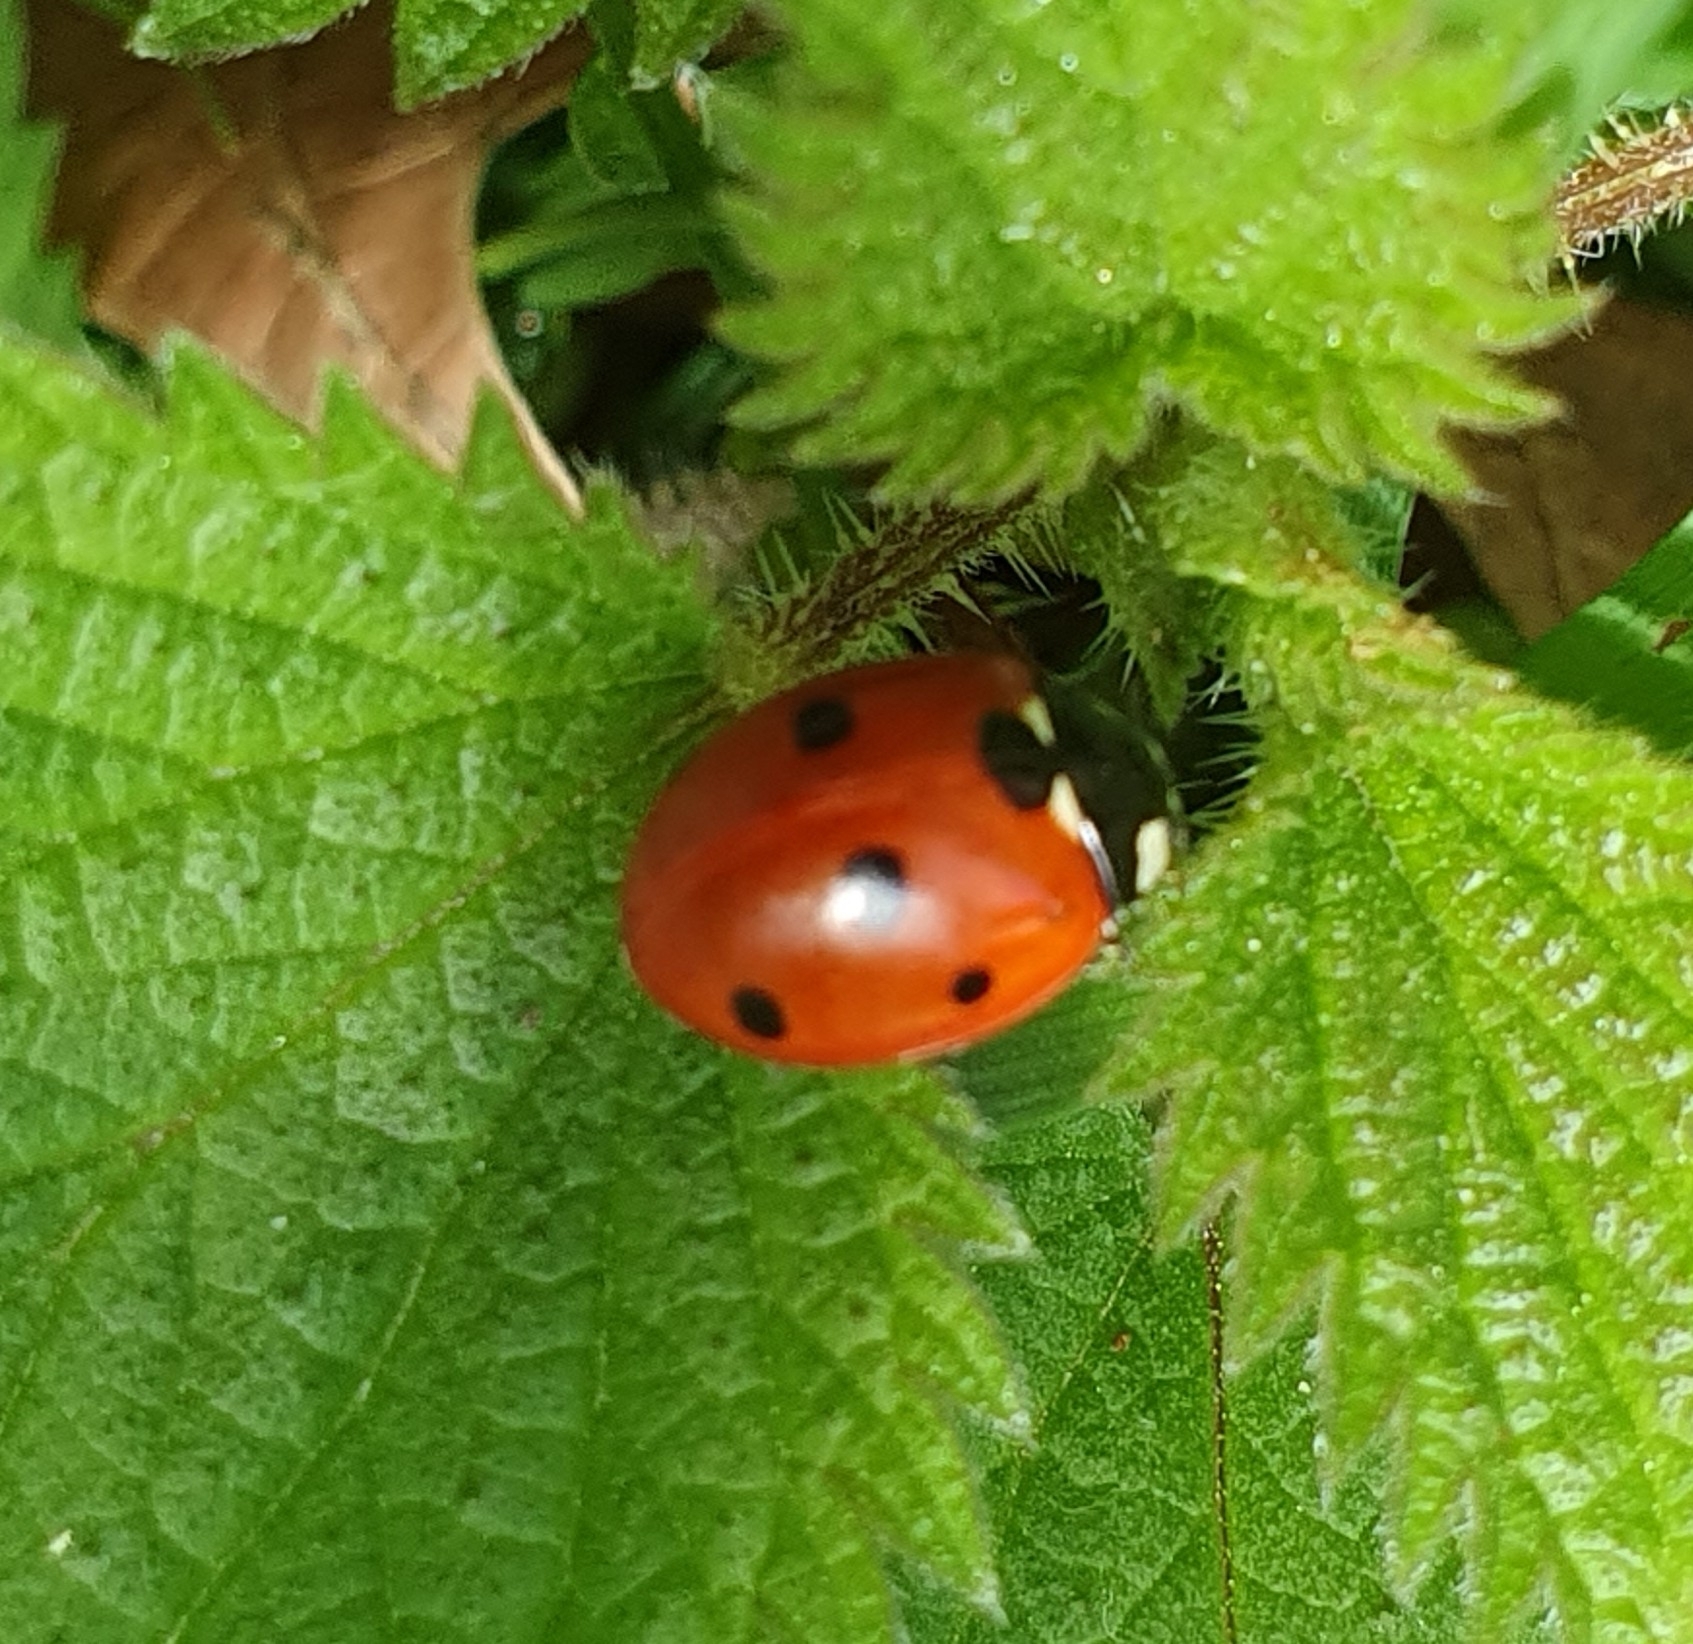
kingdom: Animalia
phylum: Arthropoda
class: Insecta
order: Coleoptera
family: Coccinellidae
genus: Coccinella
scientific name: Coccinella septempunctata
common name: Sevenspotted lady beetle
